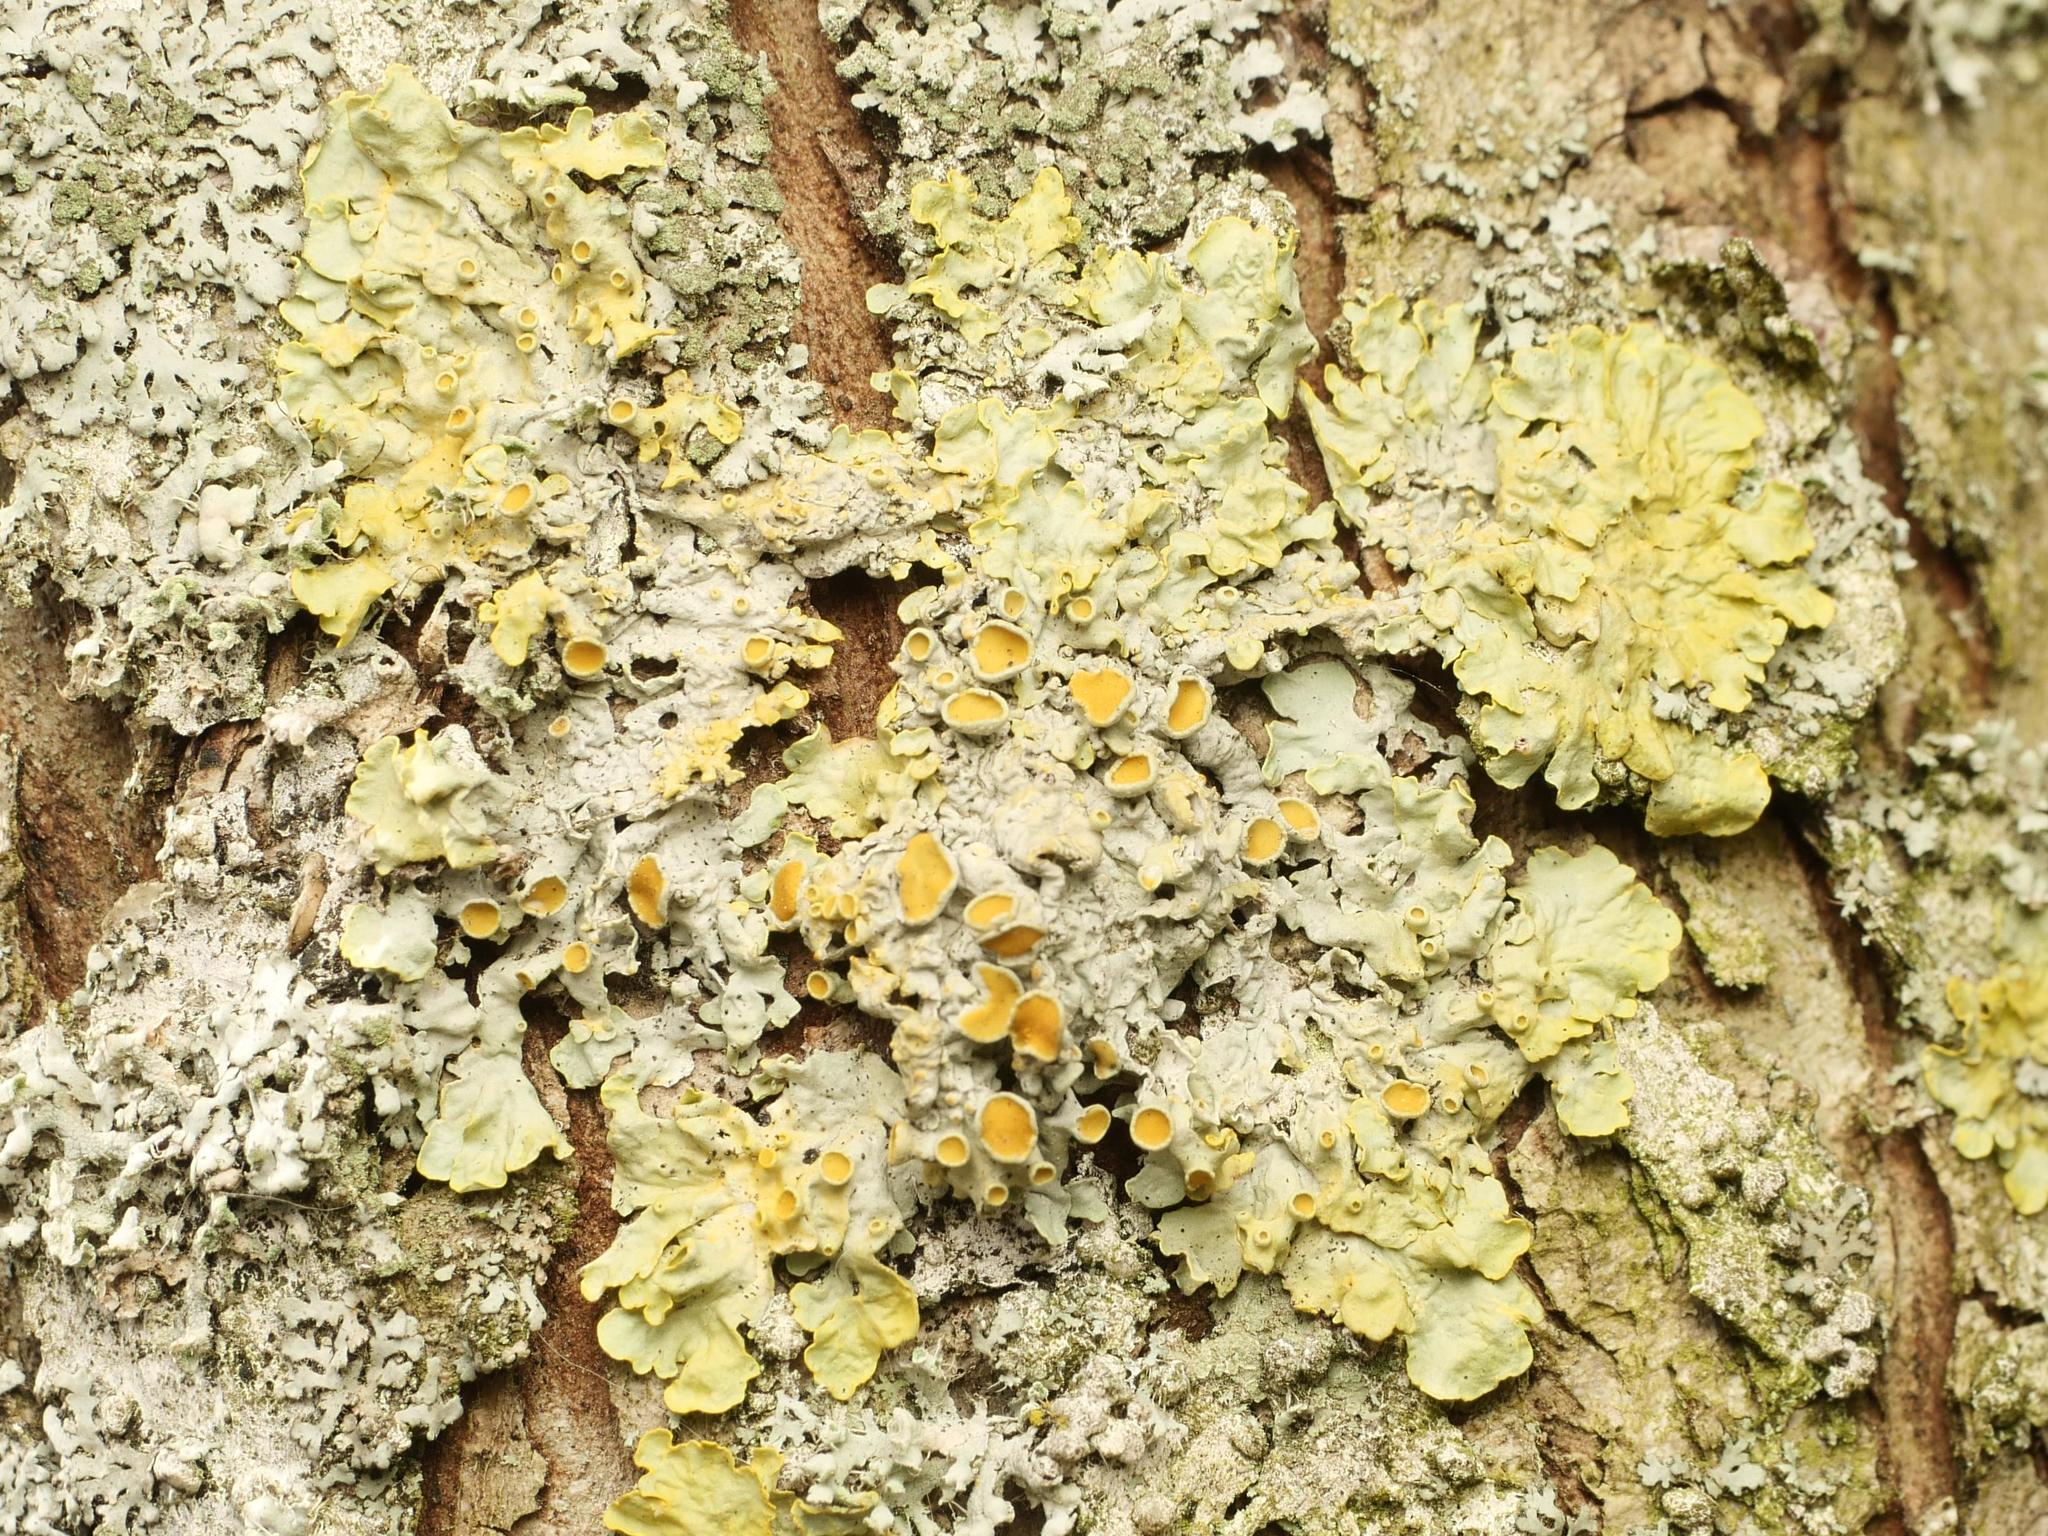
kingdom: Fungi
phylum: Ascomycota
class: Lecanoromycetes
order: Teloschistales
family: Teloschistaceae
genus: Xanthoria
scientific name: Xanthoria parietina
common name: Common orange lichen
